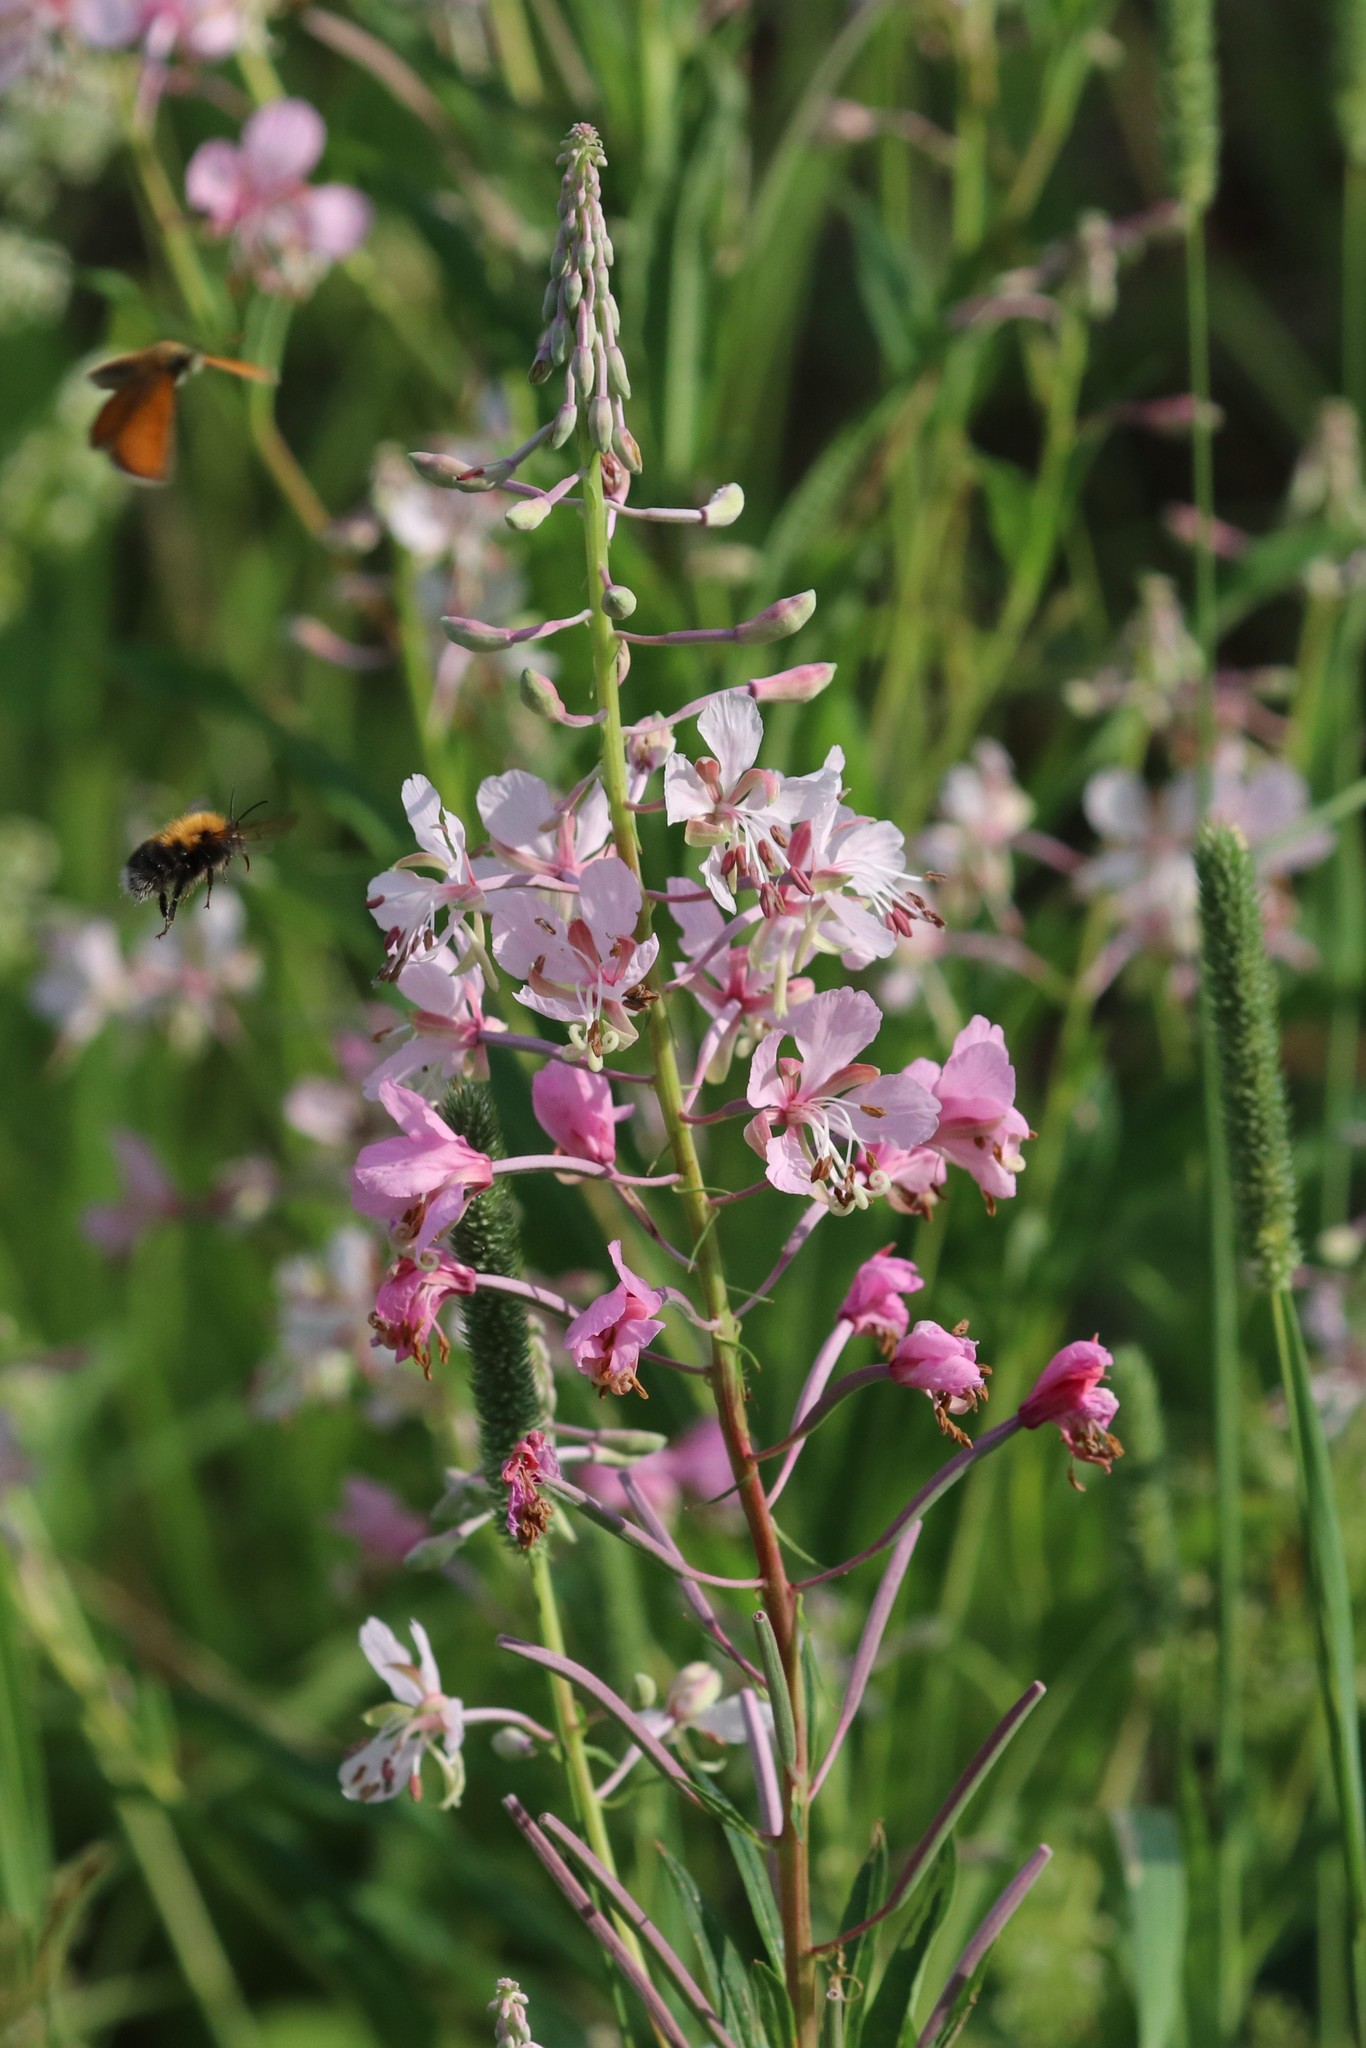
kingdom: Plantae
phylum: Tracheophyta
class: Magnoliopsida
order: Myrtales
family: Onagraceae
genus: Chamaenerion
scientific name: Chamaenerion angustifolium
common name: Fireweed
